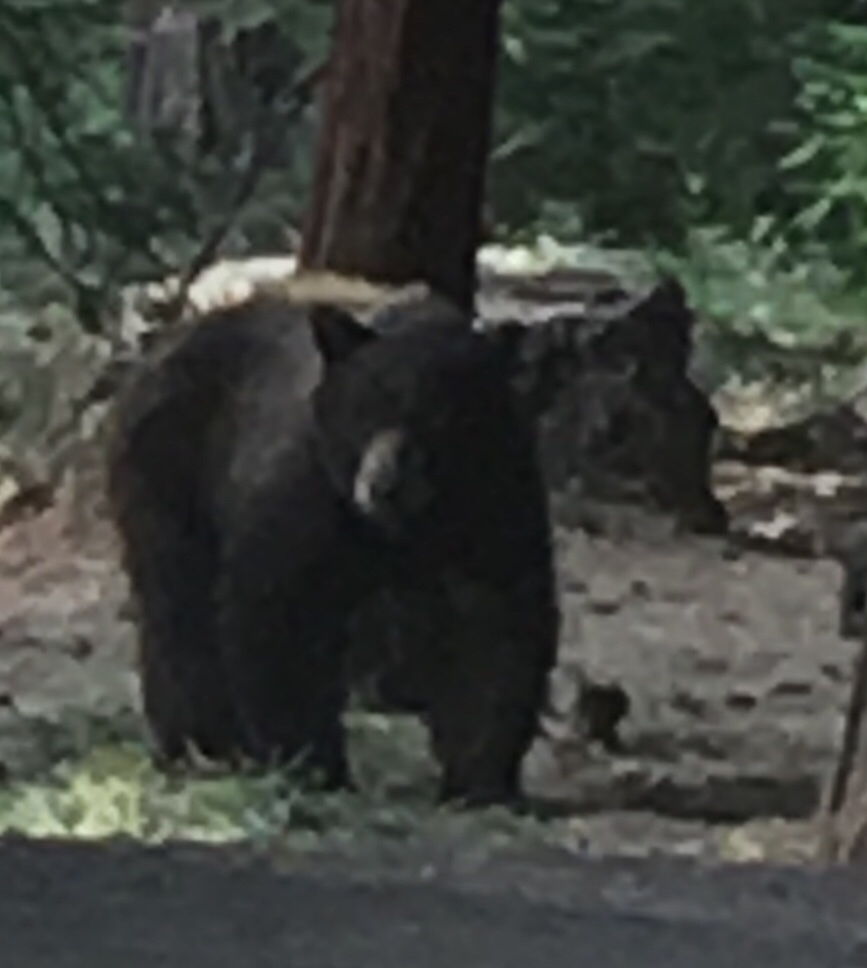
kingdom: Animalia
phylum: Chordata
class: Mammalia
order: Carnivora
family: Ursidae
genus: Ursus
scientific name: Ursus americanus
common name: American black bear
